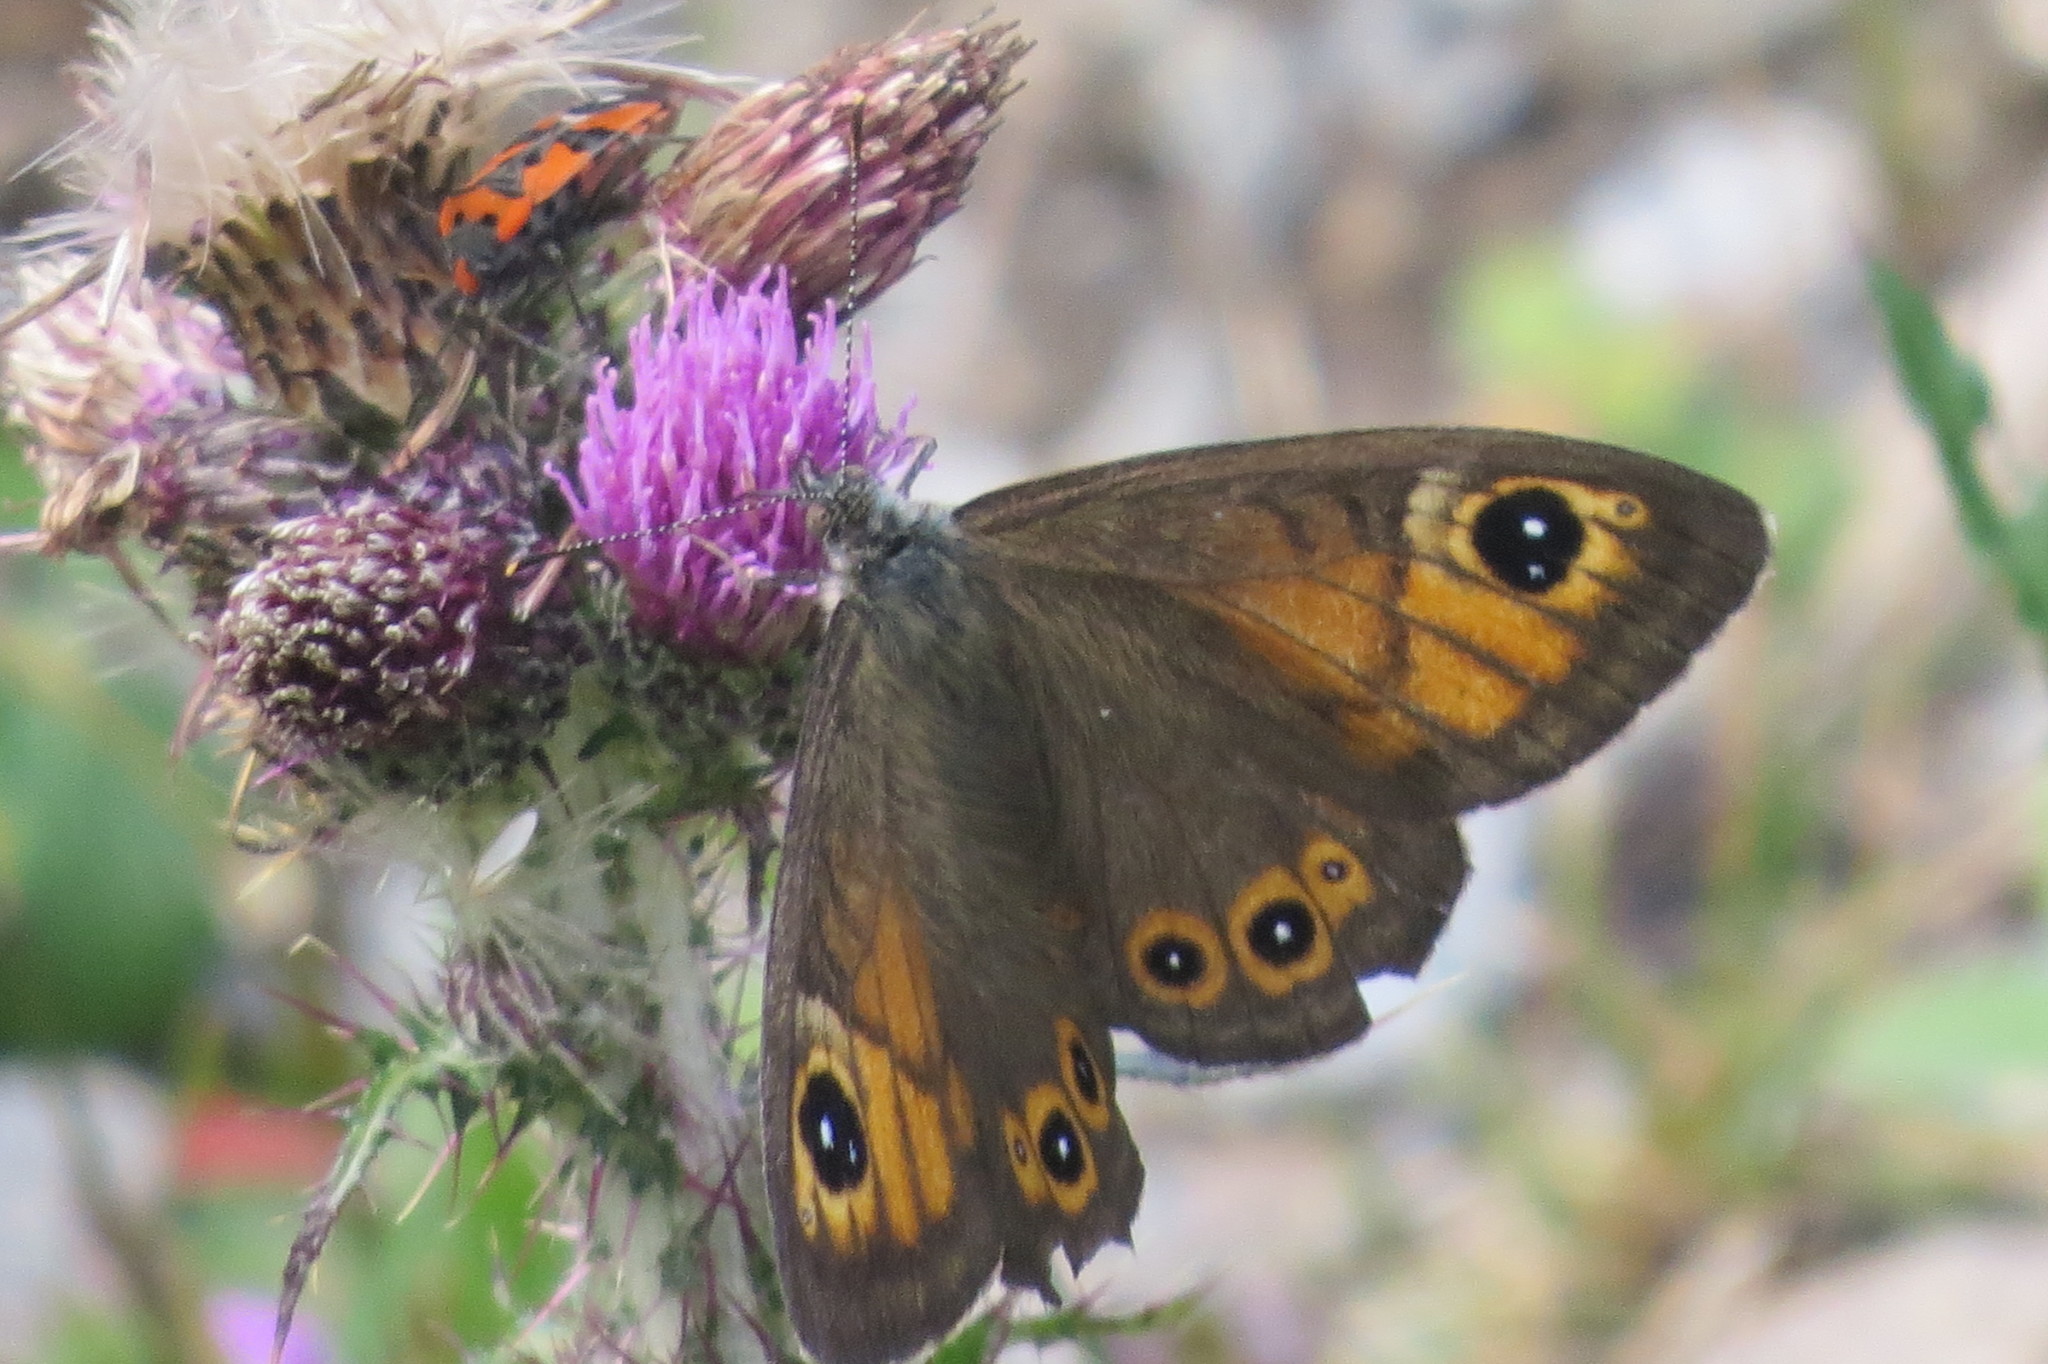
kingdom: Animalia
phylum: Arthropoda
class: Insecta
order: Lepidoptera
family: Nymphalidae
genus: Pararge
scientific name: Pararge Lasiommata maera
